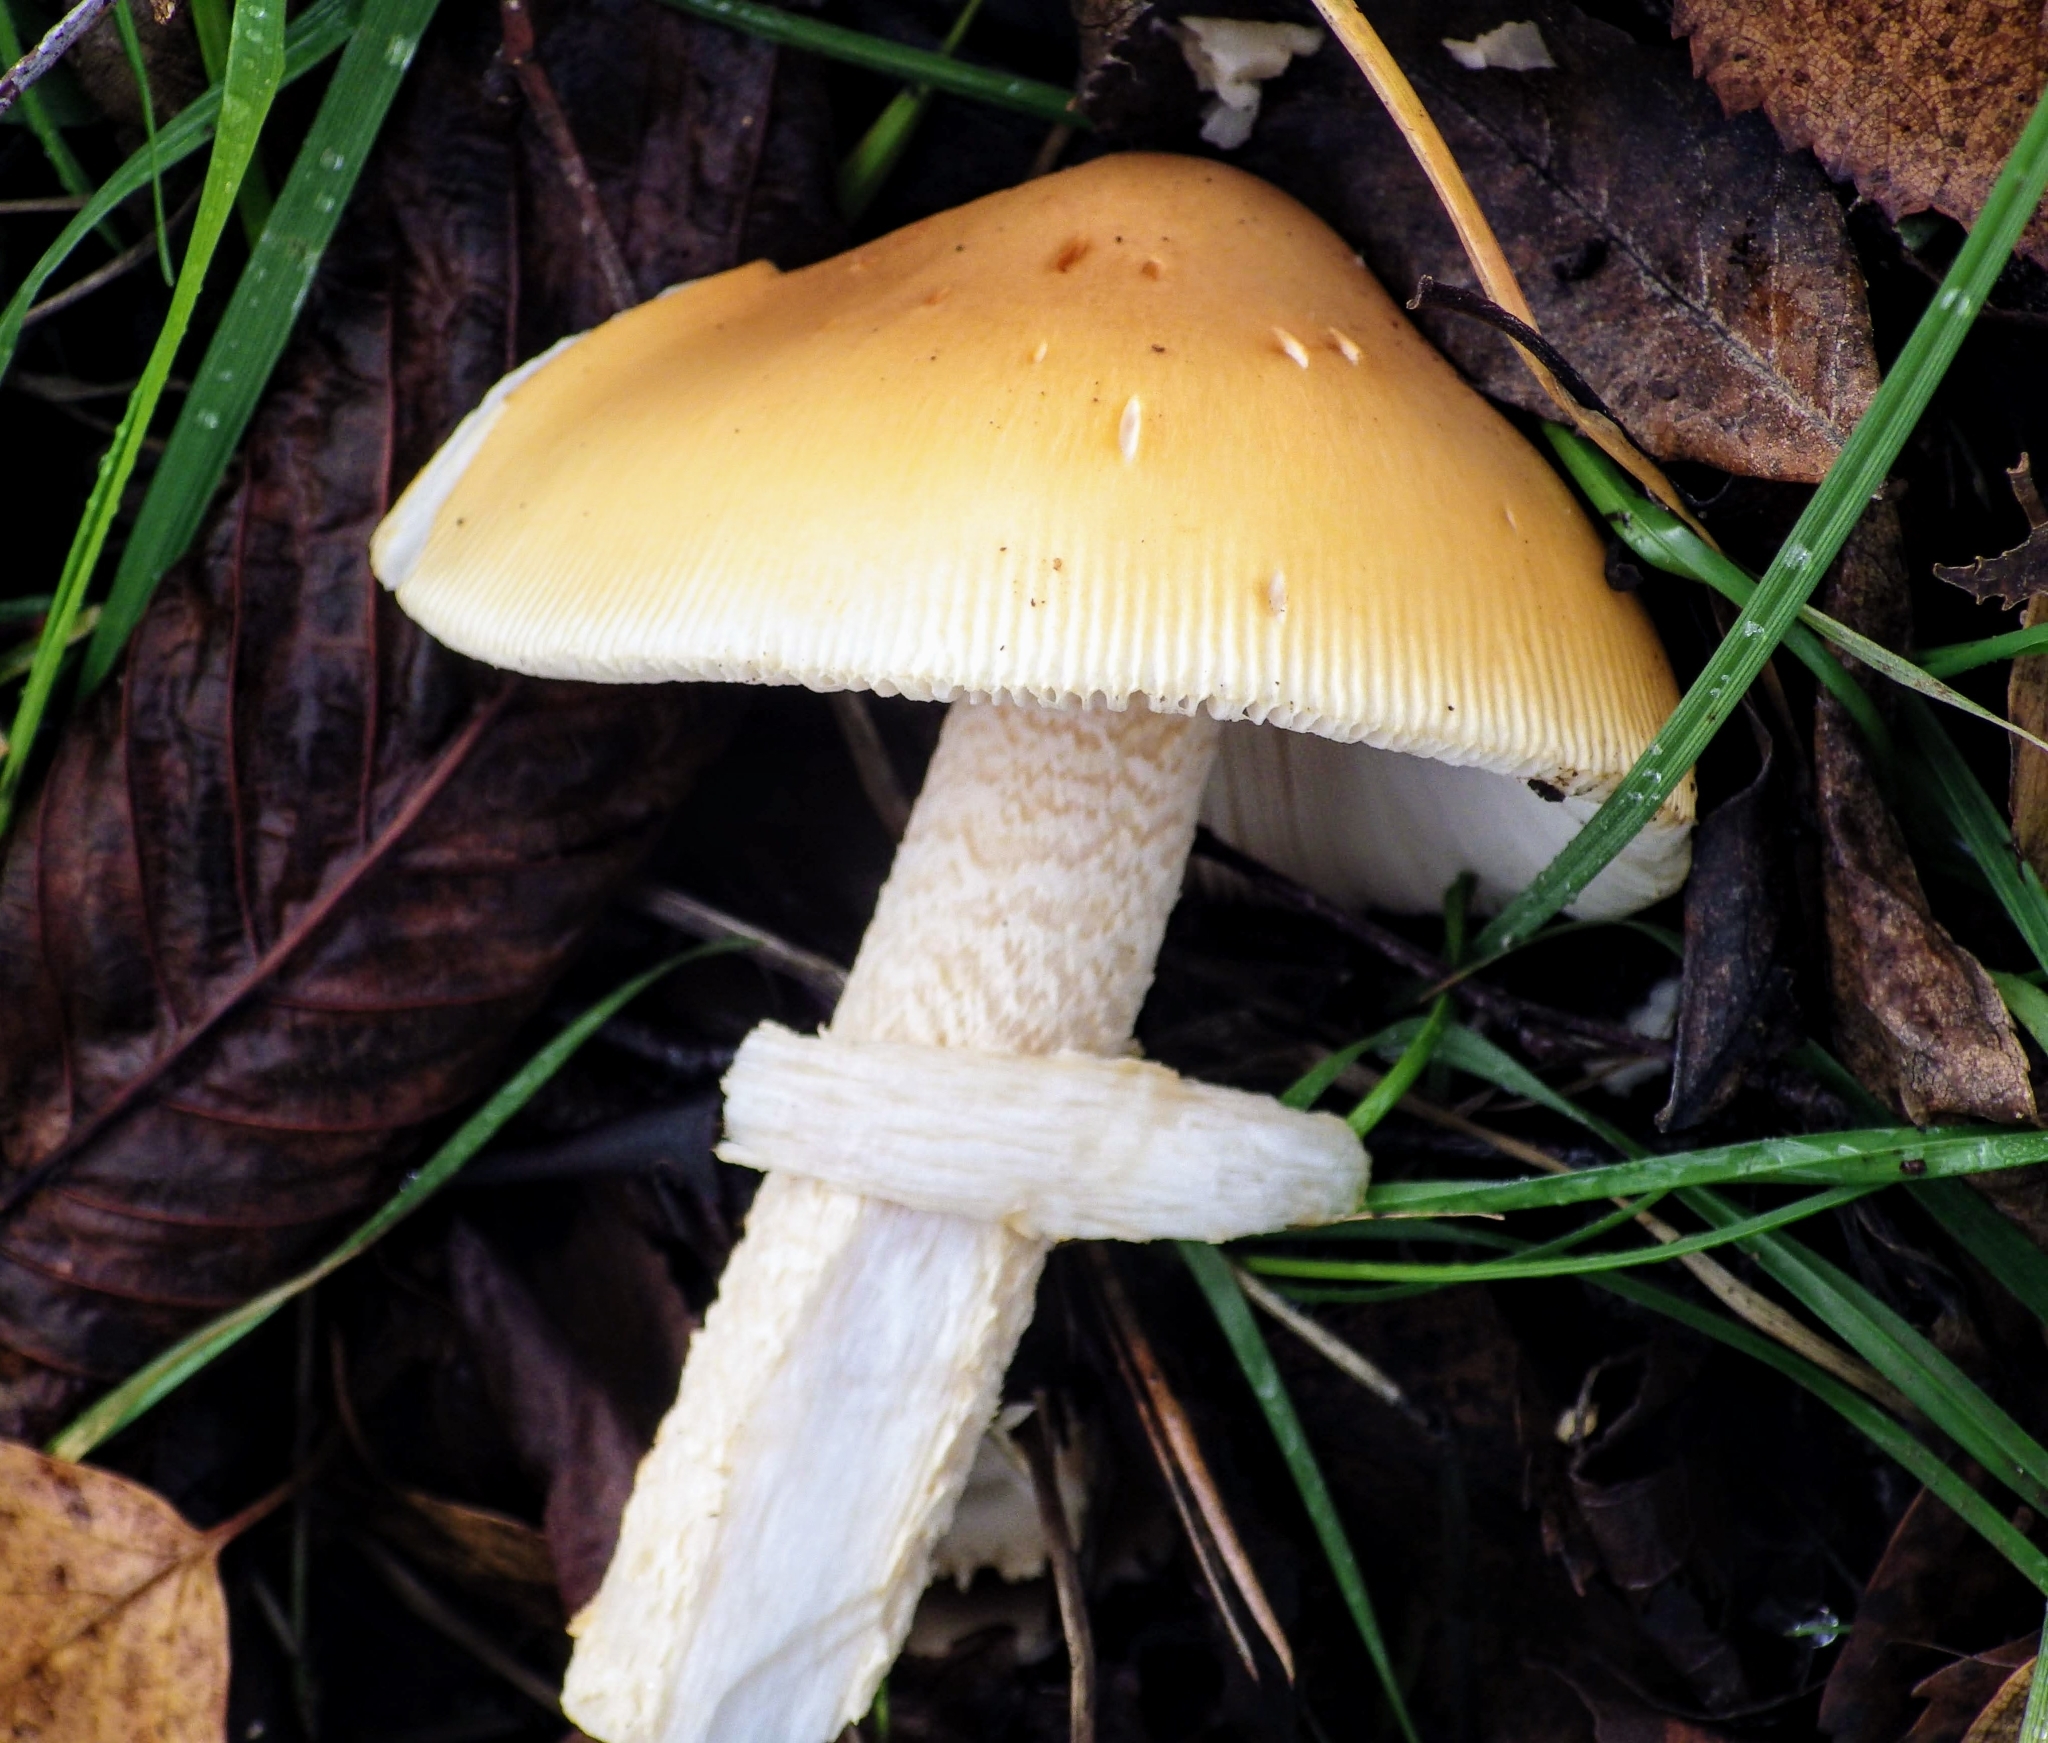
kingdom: Fungi
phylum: Basidiomycota
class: Agaricomycetes
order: Agaricales
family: Amanitaceae
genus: Amanita
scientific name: Amanita crocea
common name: Orange grisette
